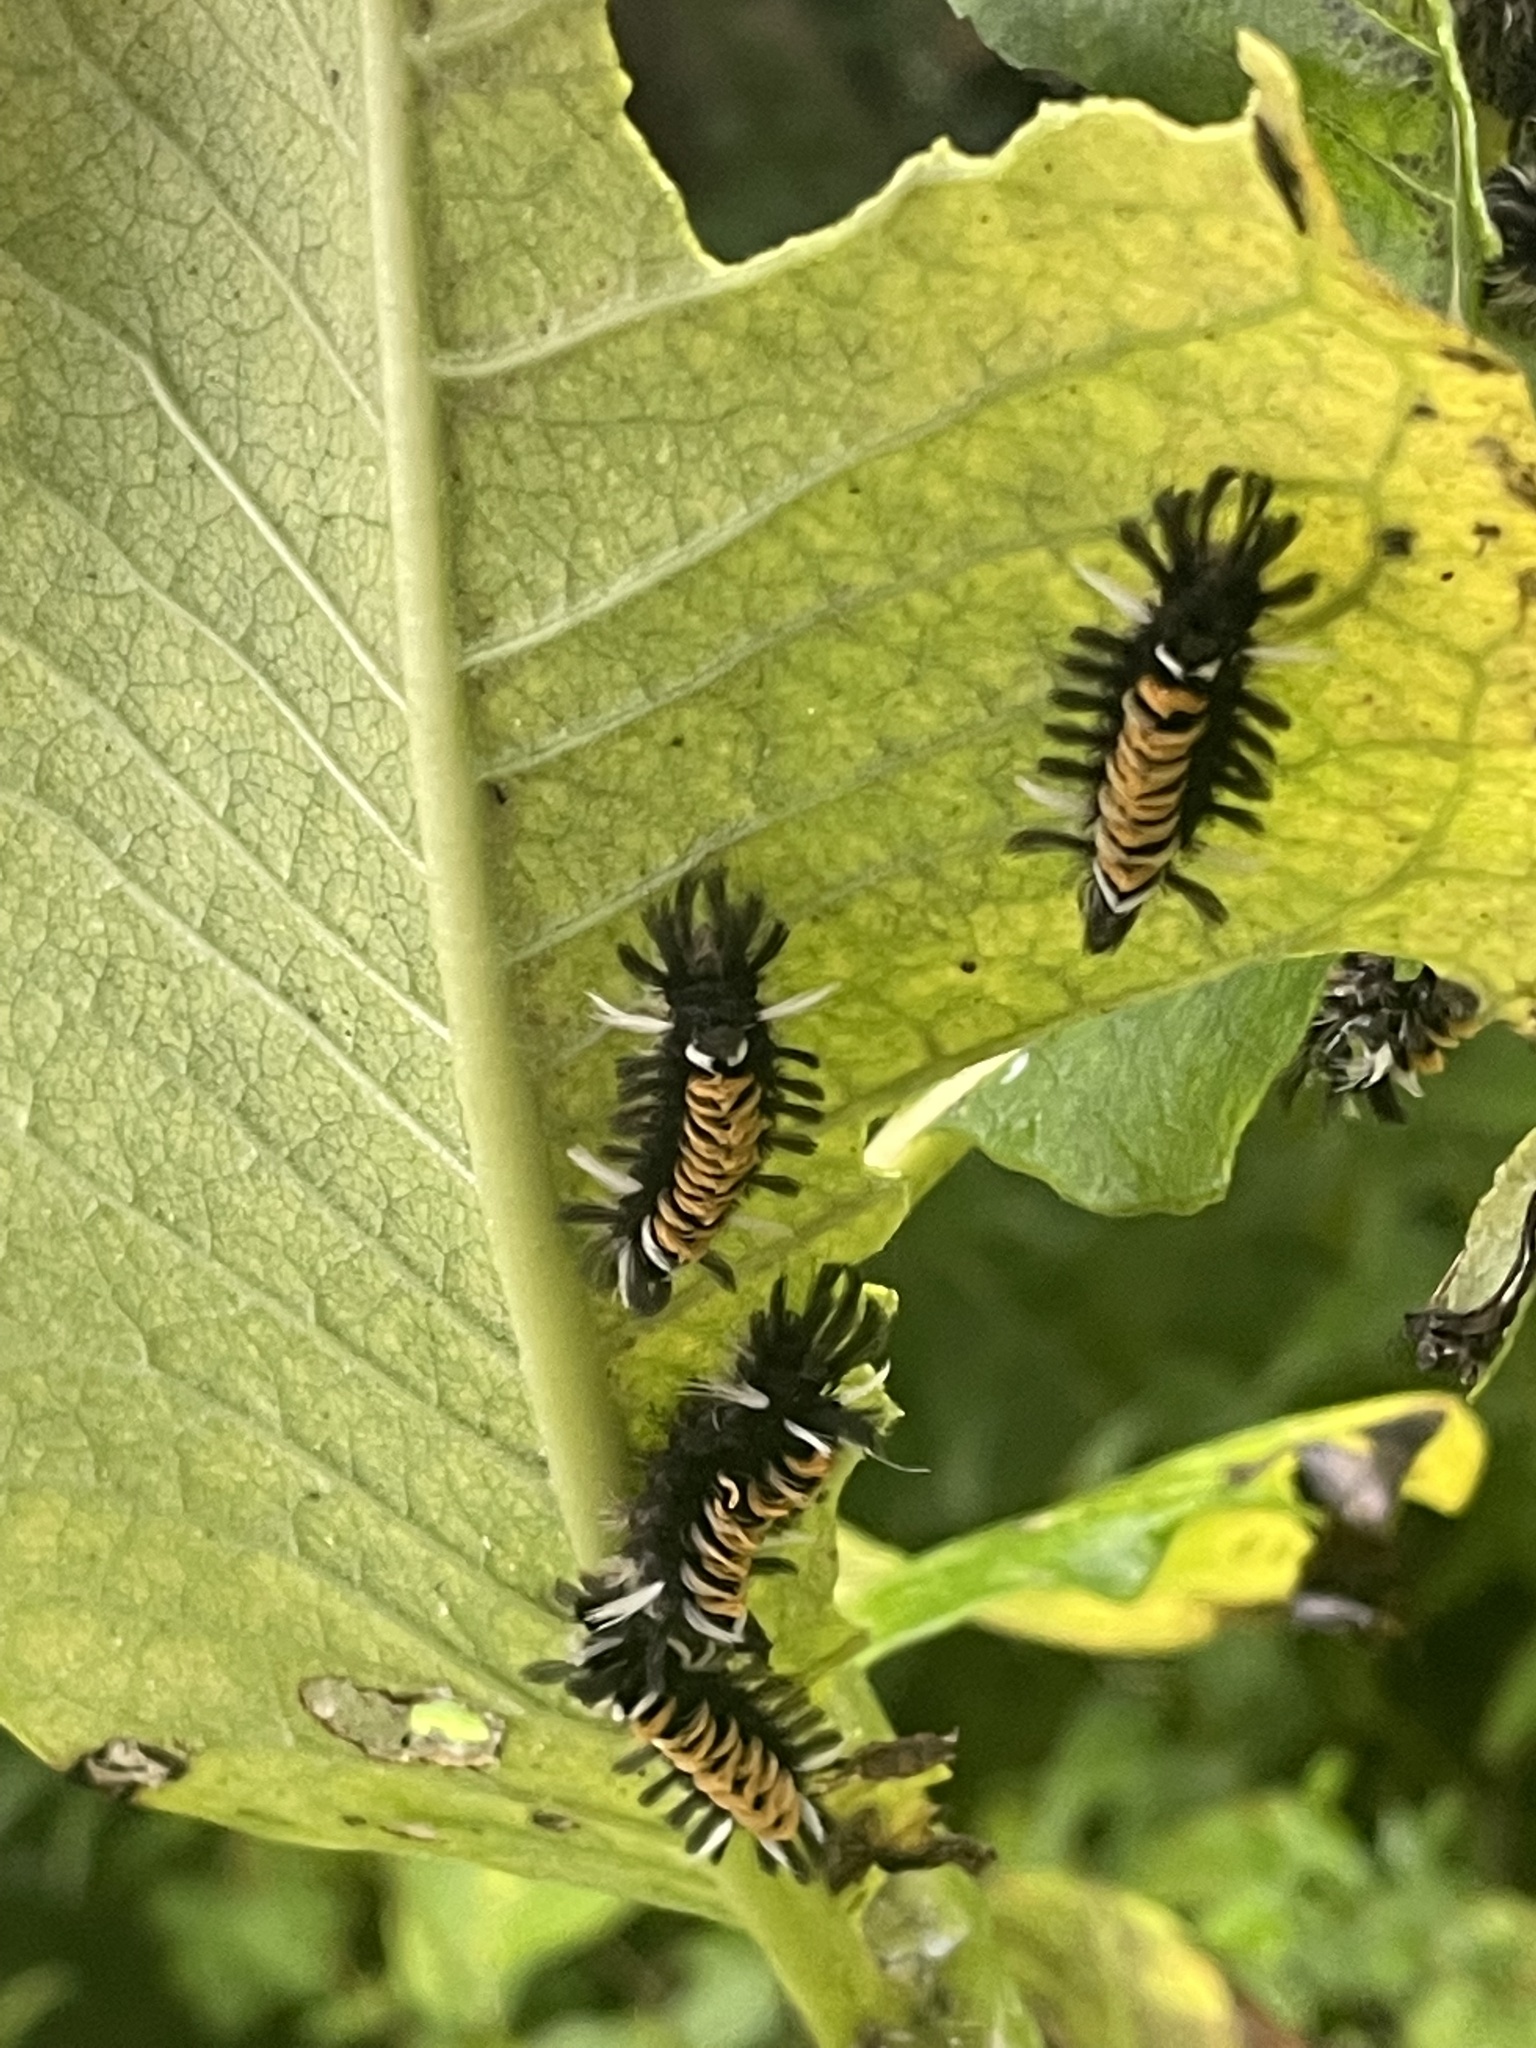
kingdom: Animalia
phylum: Arthropoda
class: Insecta
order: Lepidoptera
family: Erebidae
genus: Euchaetes
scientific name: Euchaetes egle
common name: Milkweed tussock moth
